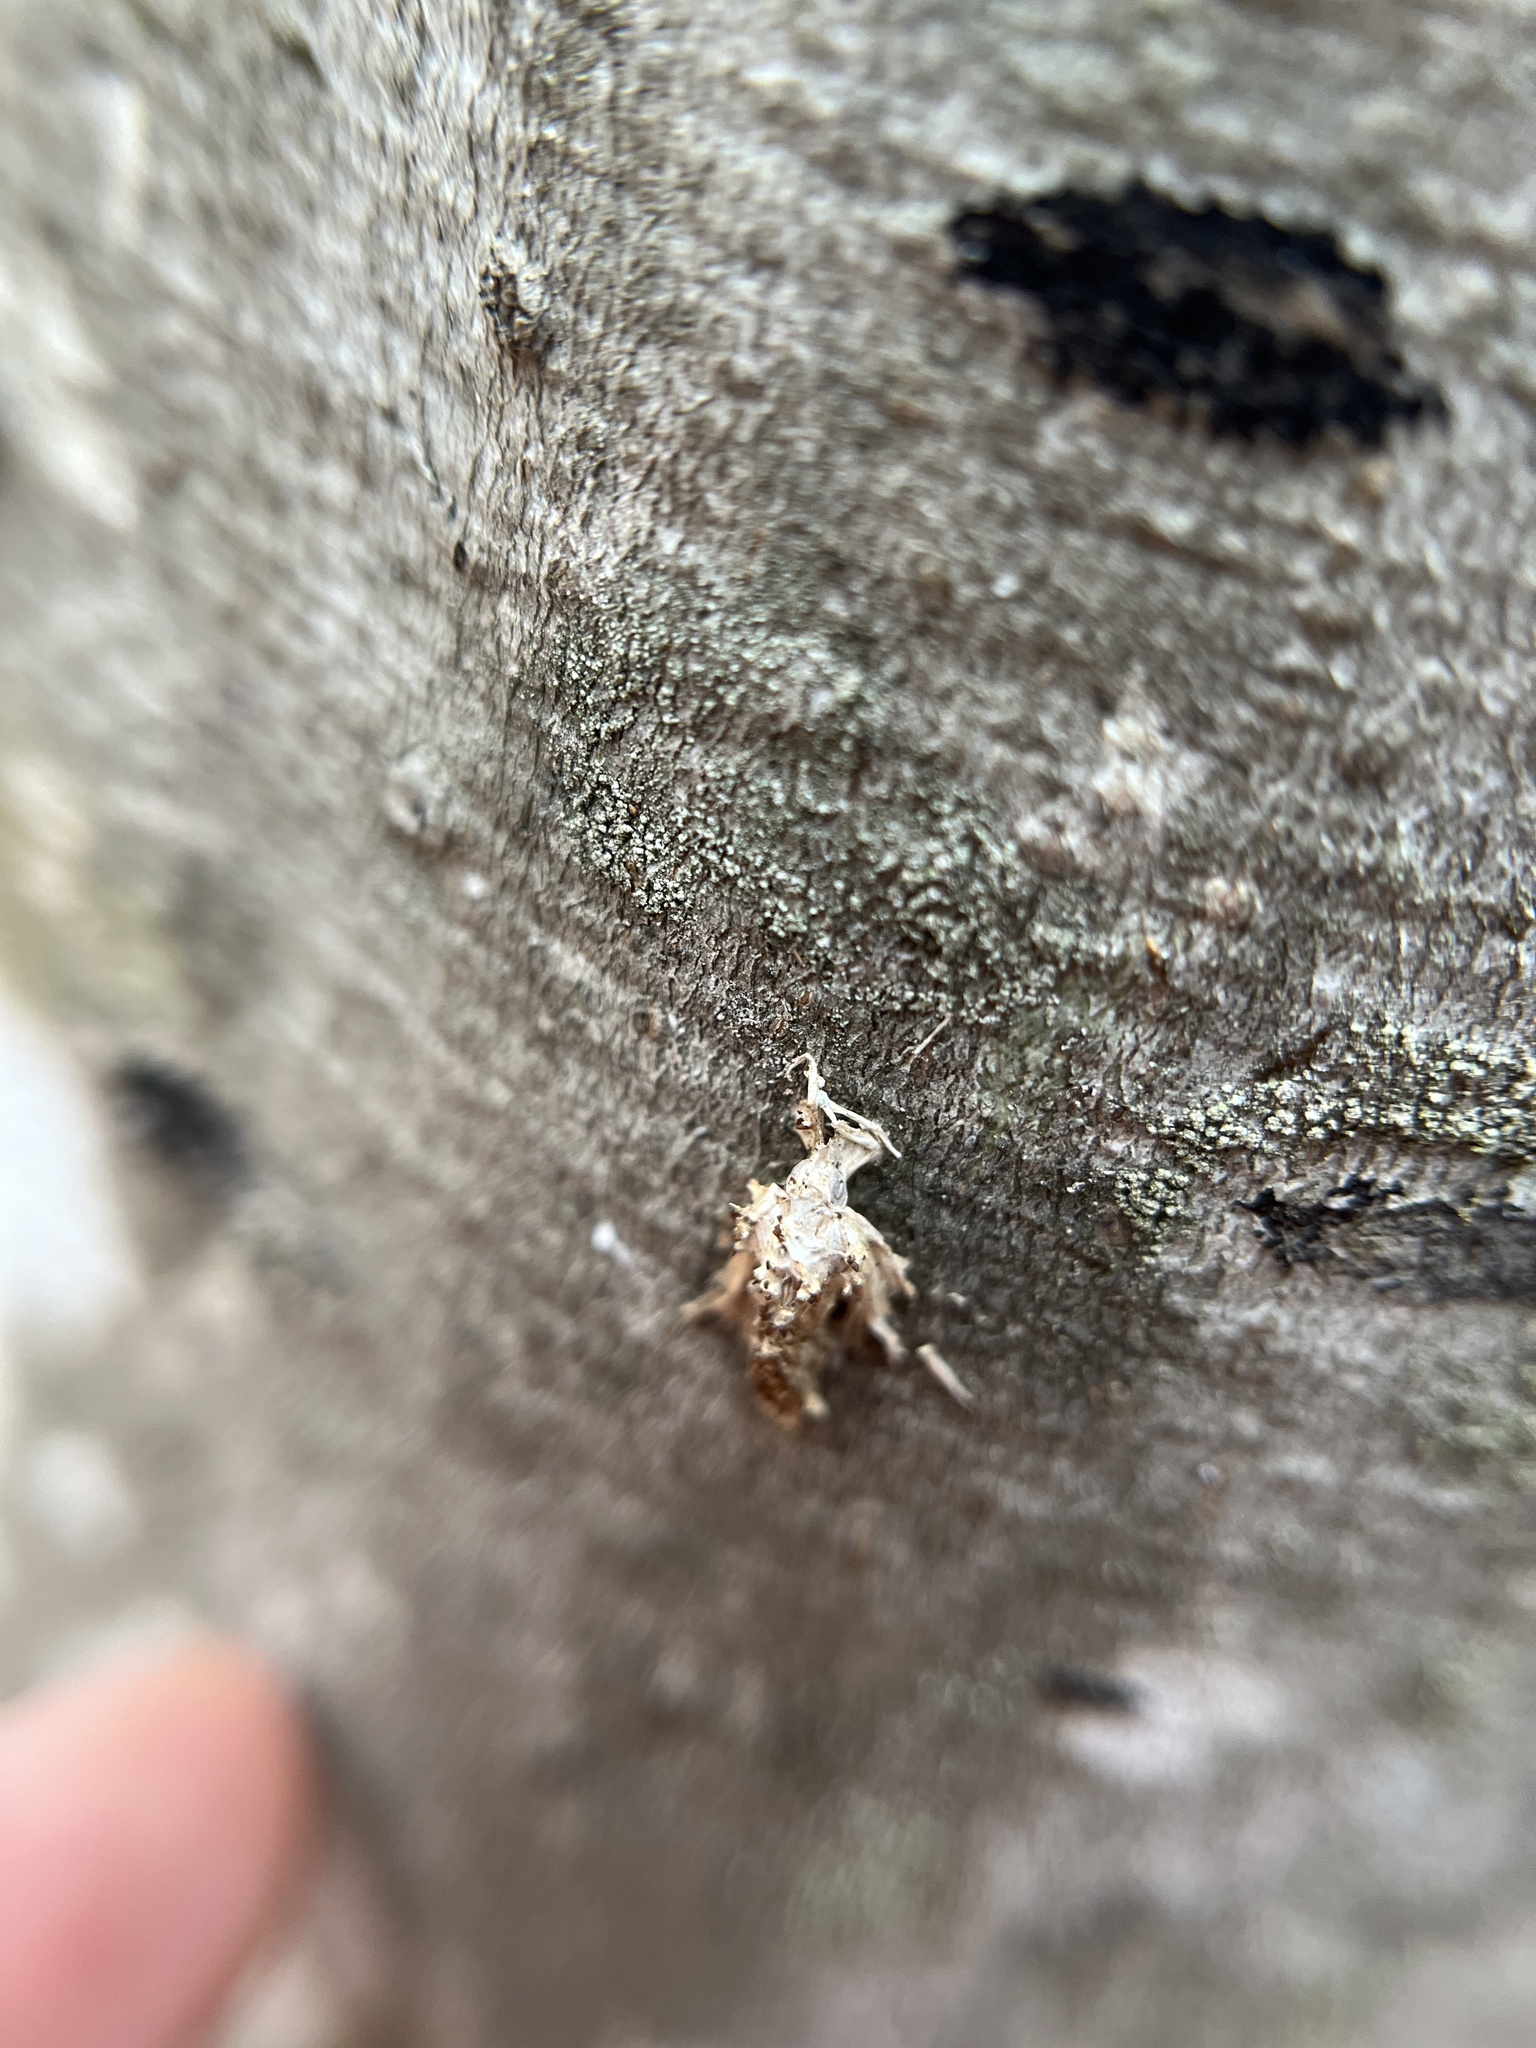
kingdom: Fungi
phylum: Ascomycota
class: Sordariomycetes
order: Hypocreales
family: Cordycipitaceae
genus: Akanthomyces
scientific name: Akanthomyces
